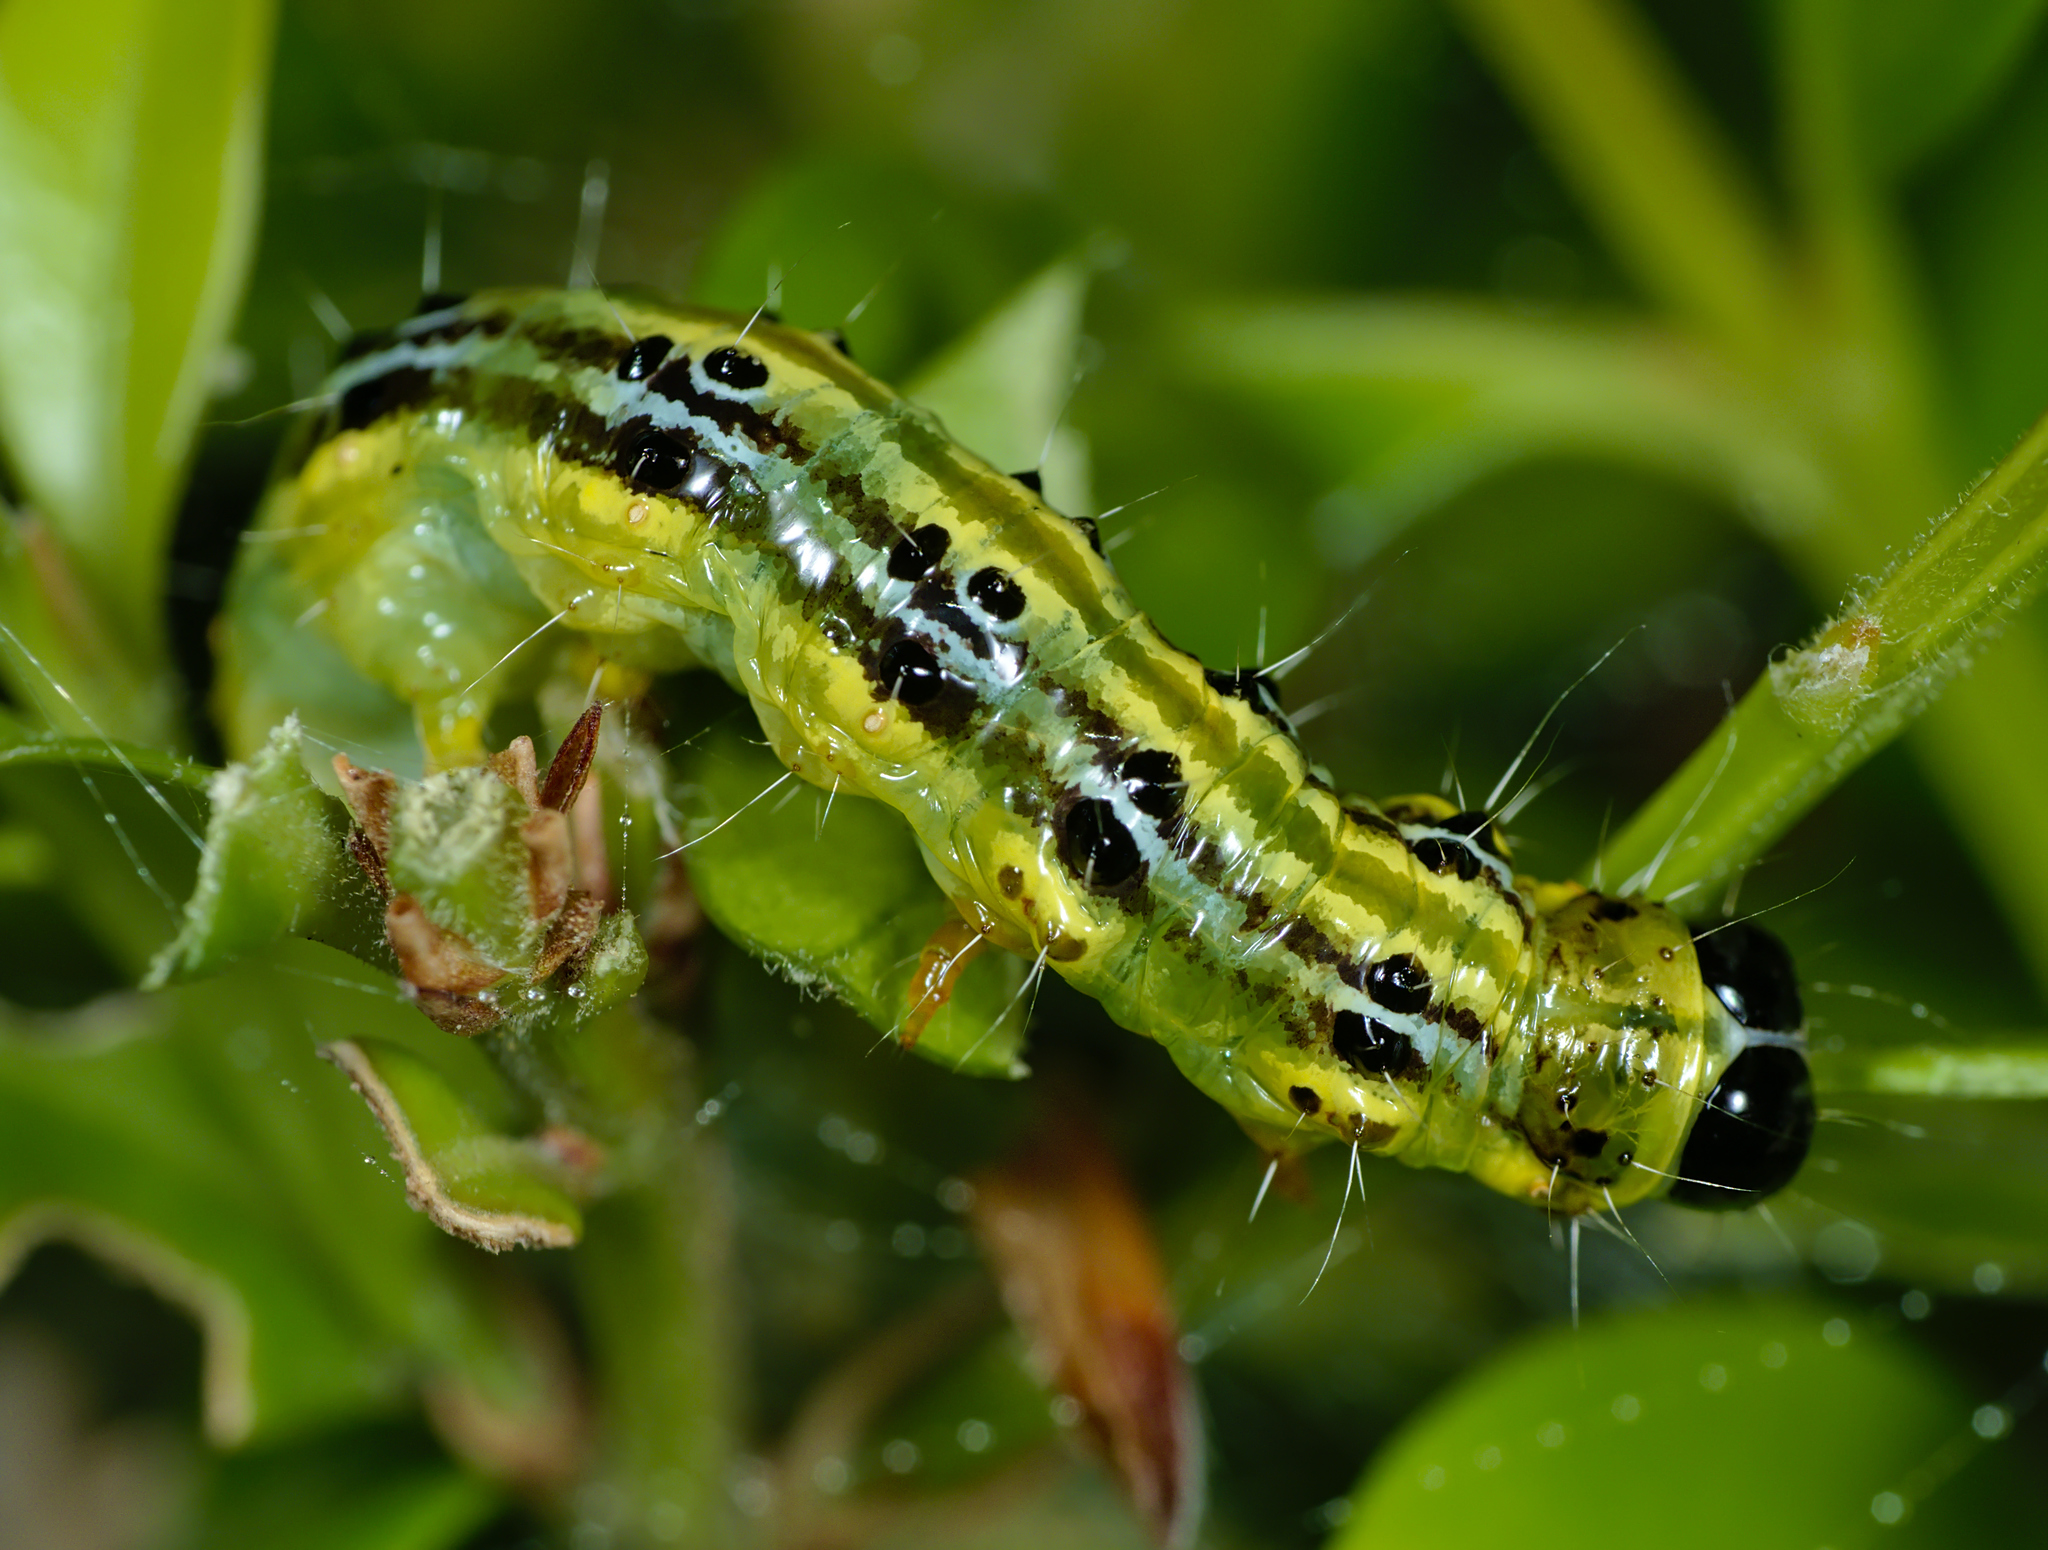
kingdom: Animalia
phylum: Arthropoda
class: Insecta
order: Lepidoptera
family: Crambidae
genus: Cydalima
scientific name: Cydalima perspectalis
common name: Box tree moth
